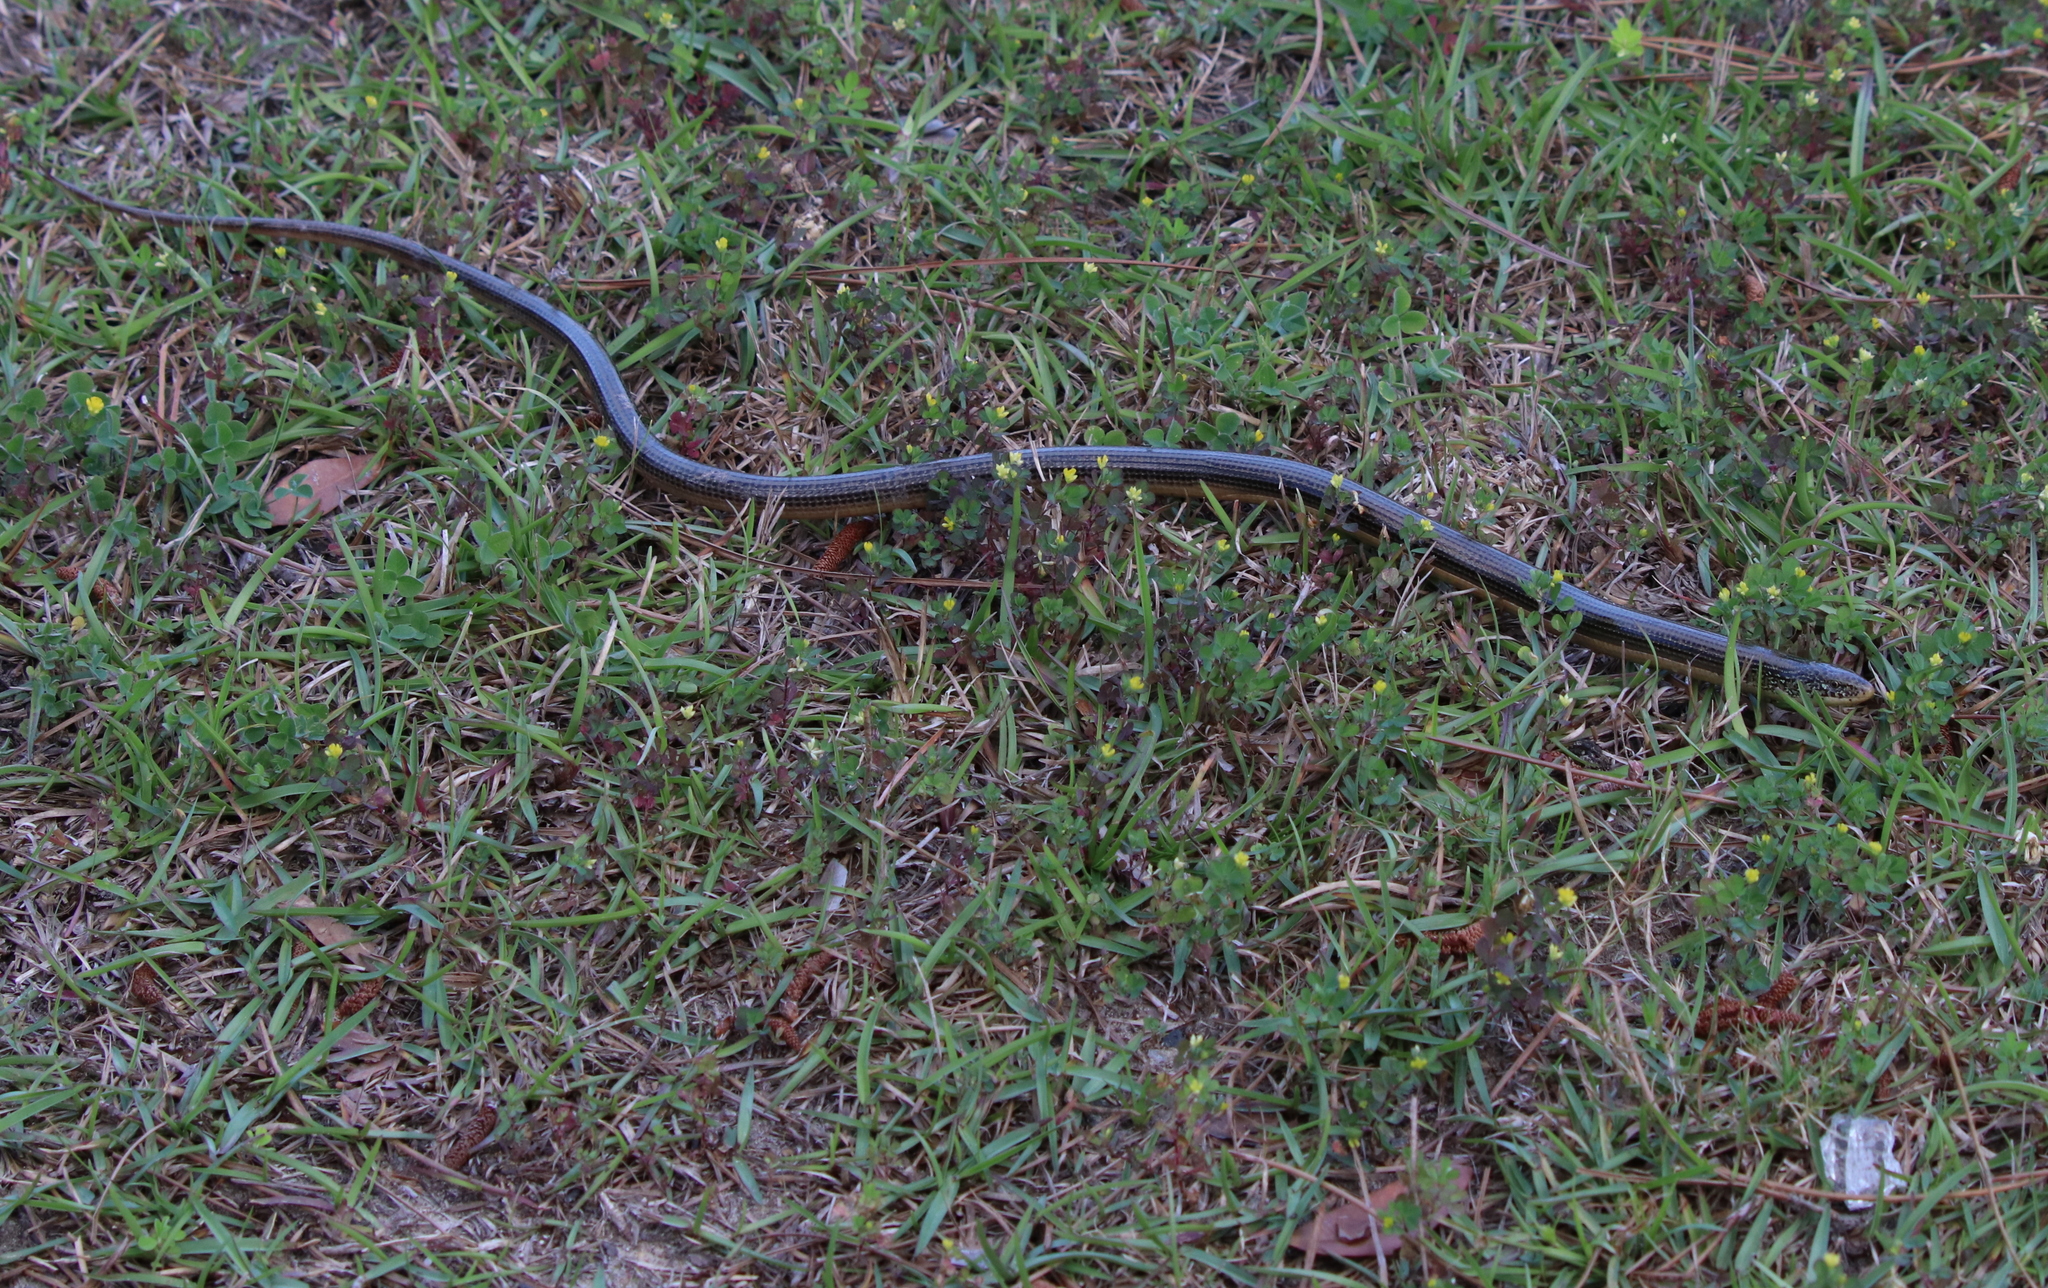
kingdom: Animalia
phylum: Chordata
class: Squamata
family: Anguidae
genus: Ophisaurus
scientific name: Ophisaurus ventralis
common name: Eastern glass lizard
